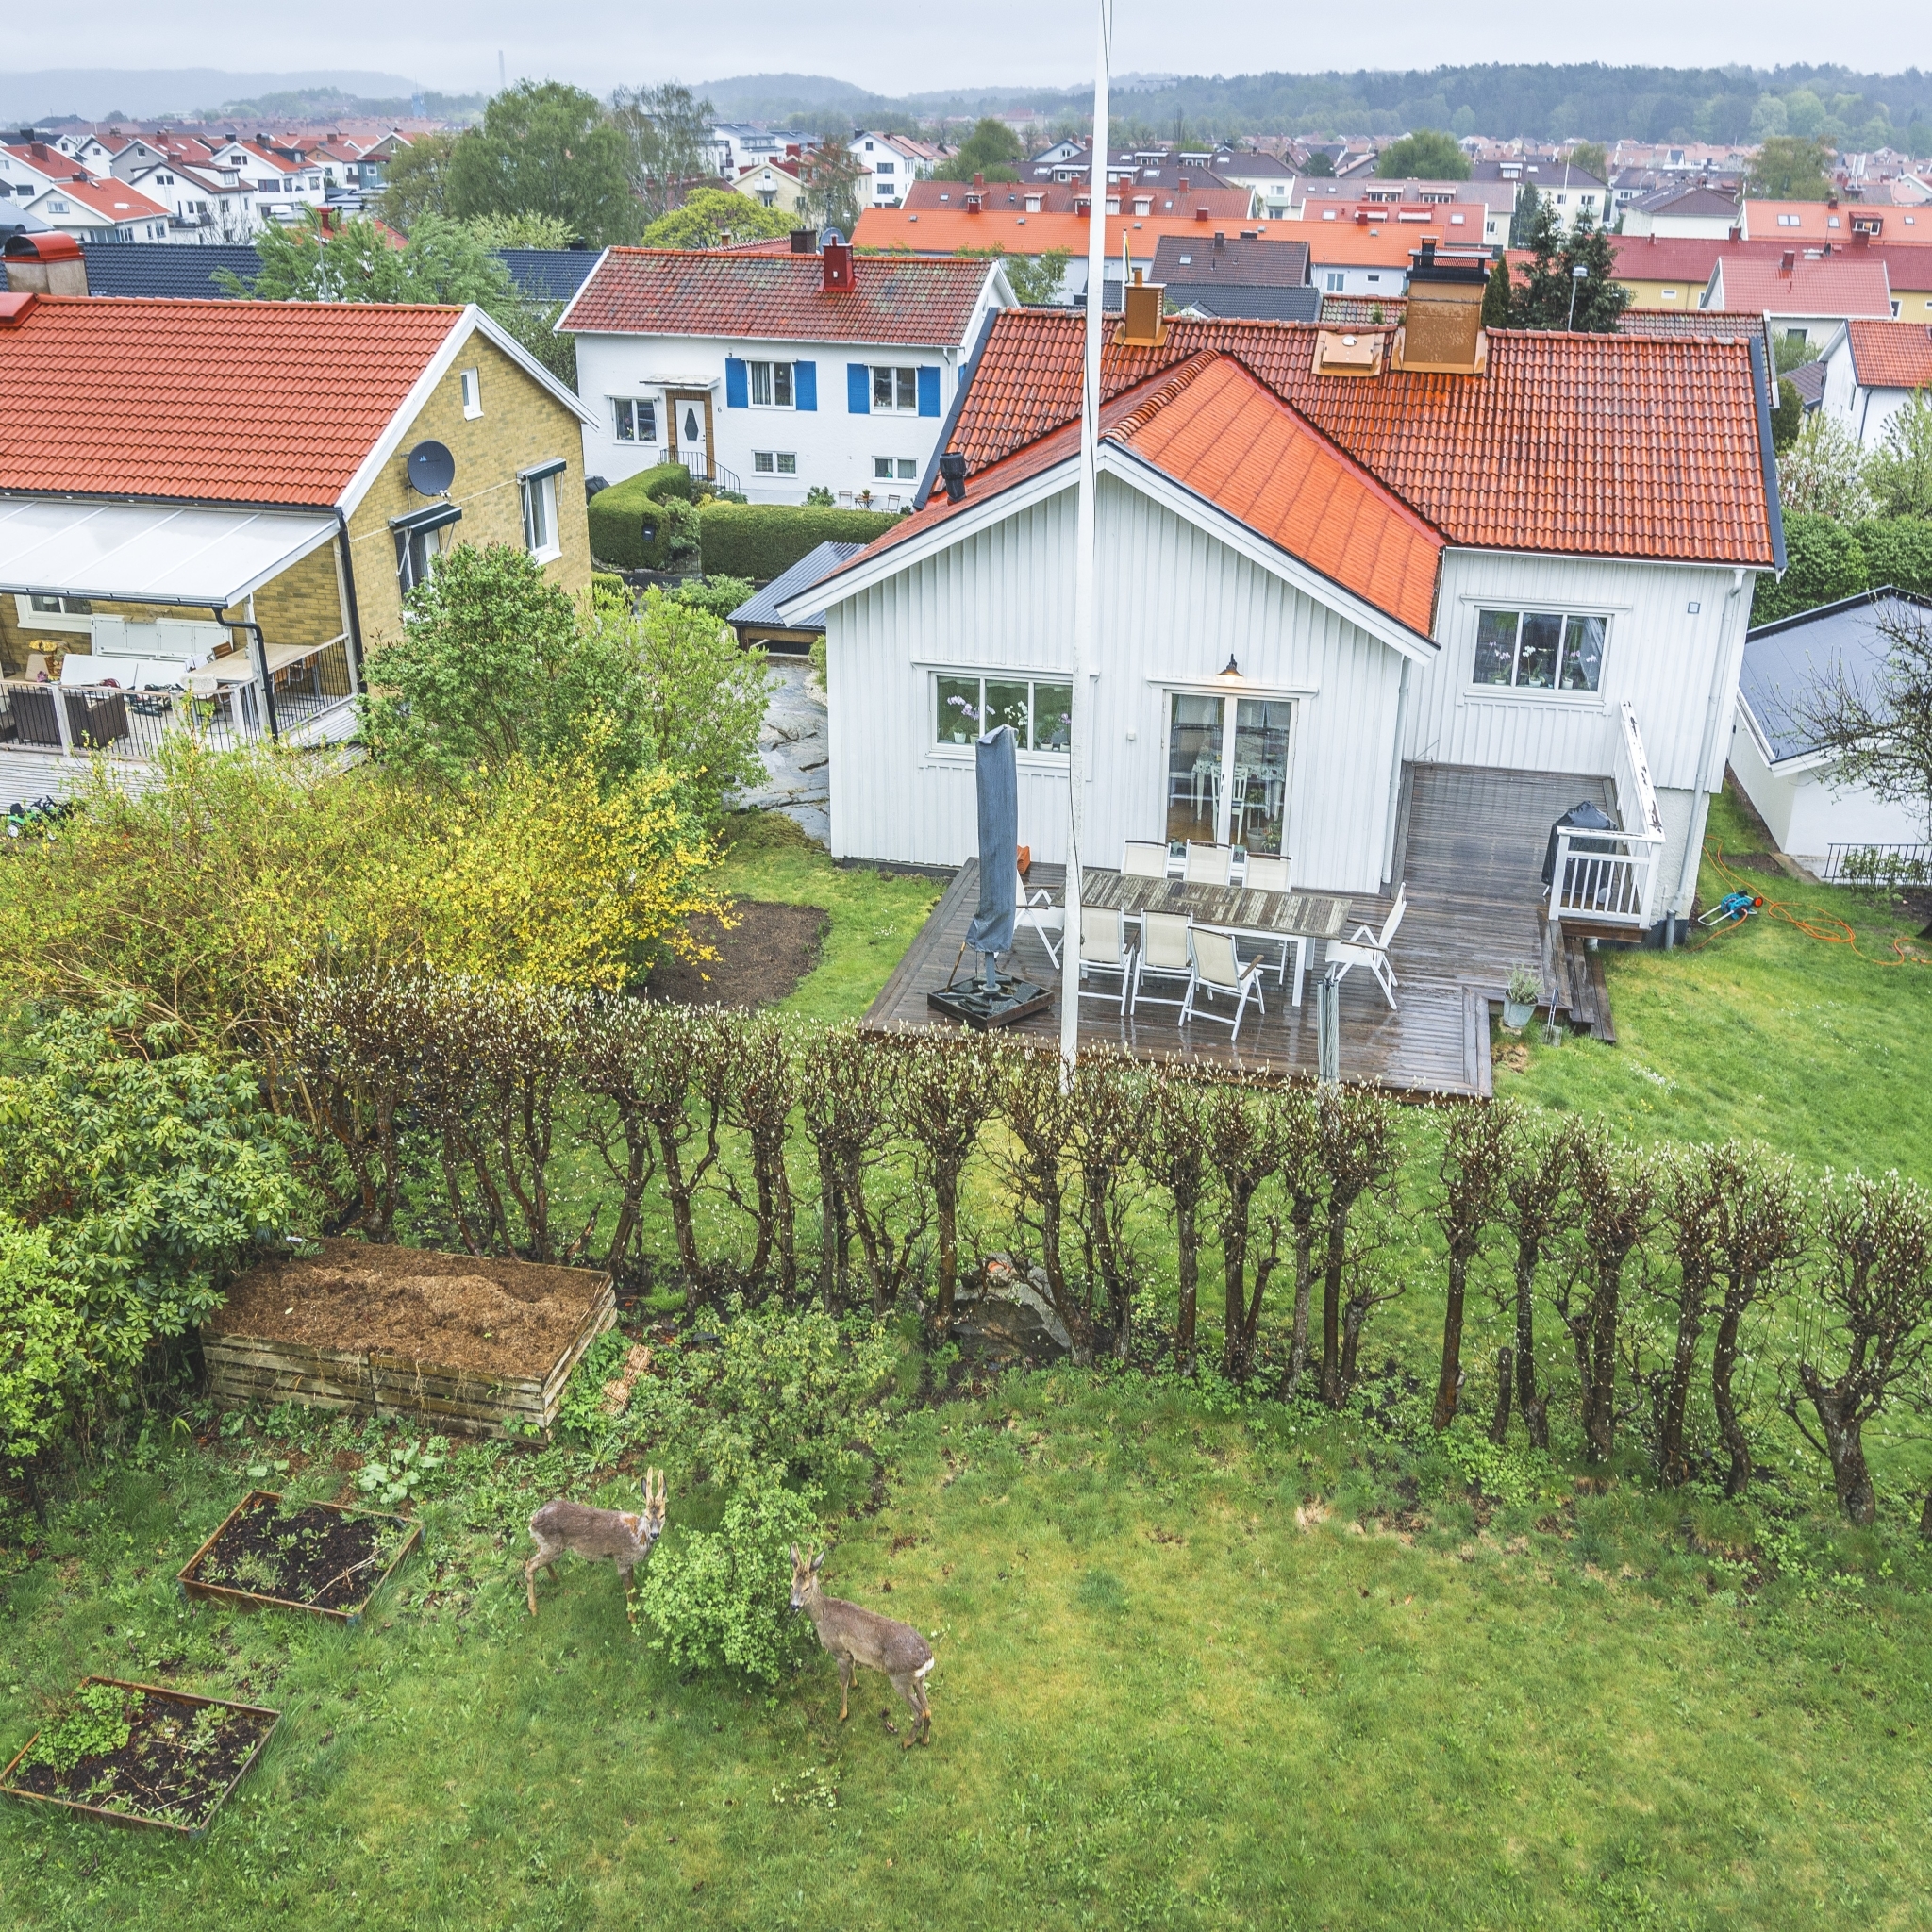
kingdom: Animalia
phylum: Chordata
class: Mammalia
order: Artiodactyla
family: Cervidae
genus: Capreolus
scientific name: Capreolus capreolus
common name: Western roe deer
